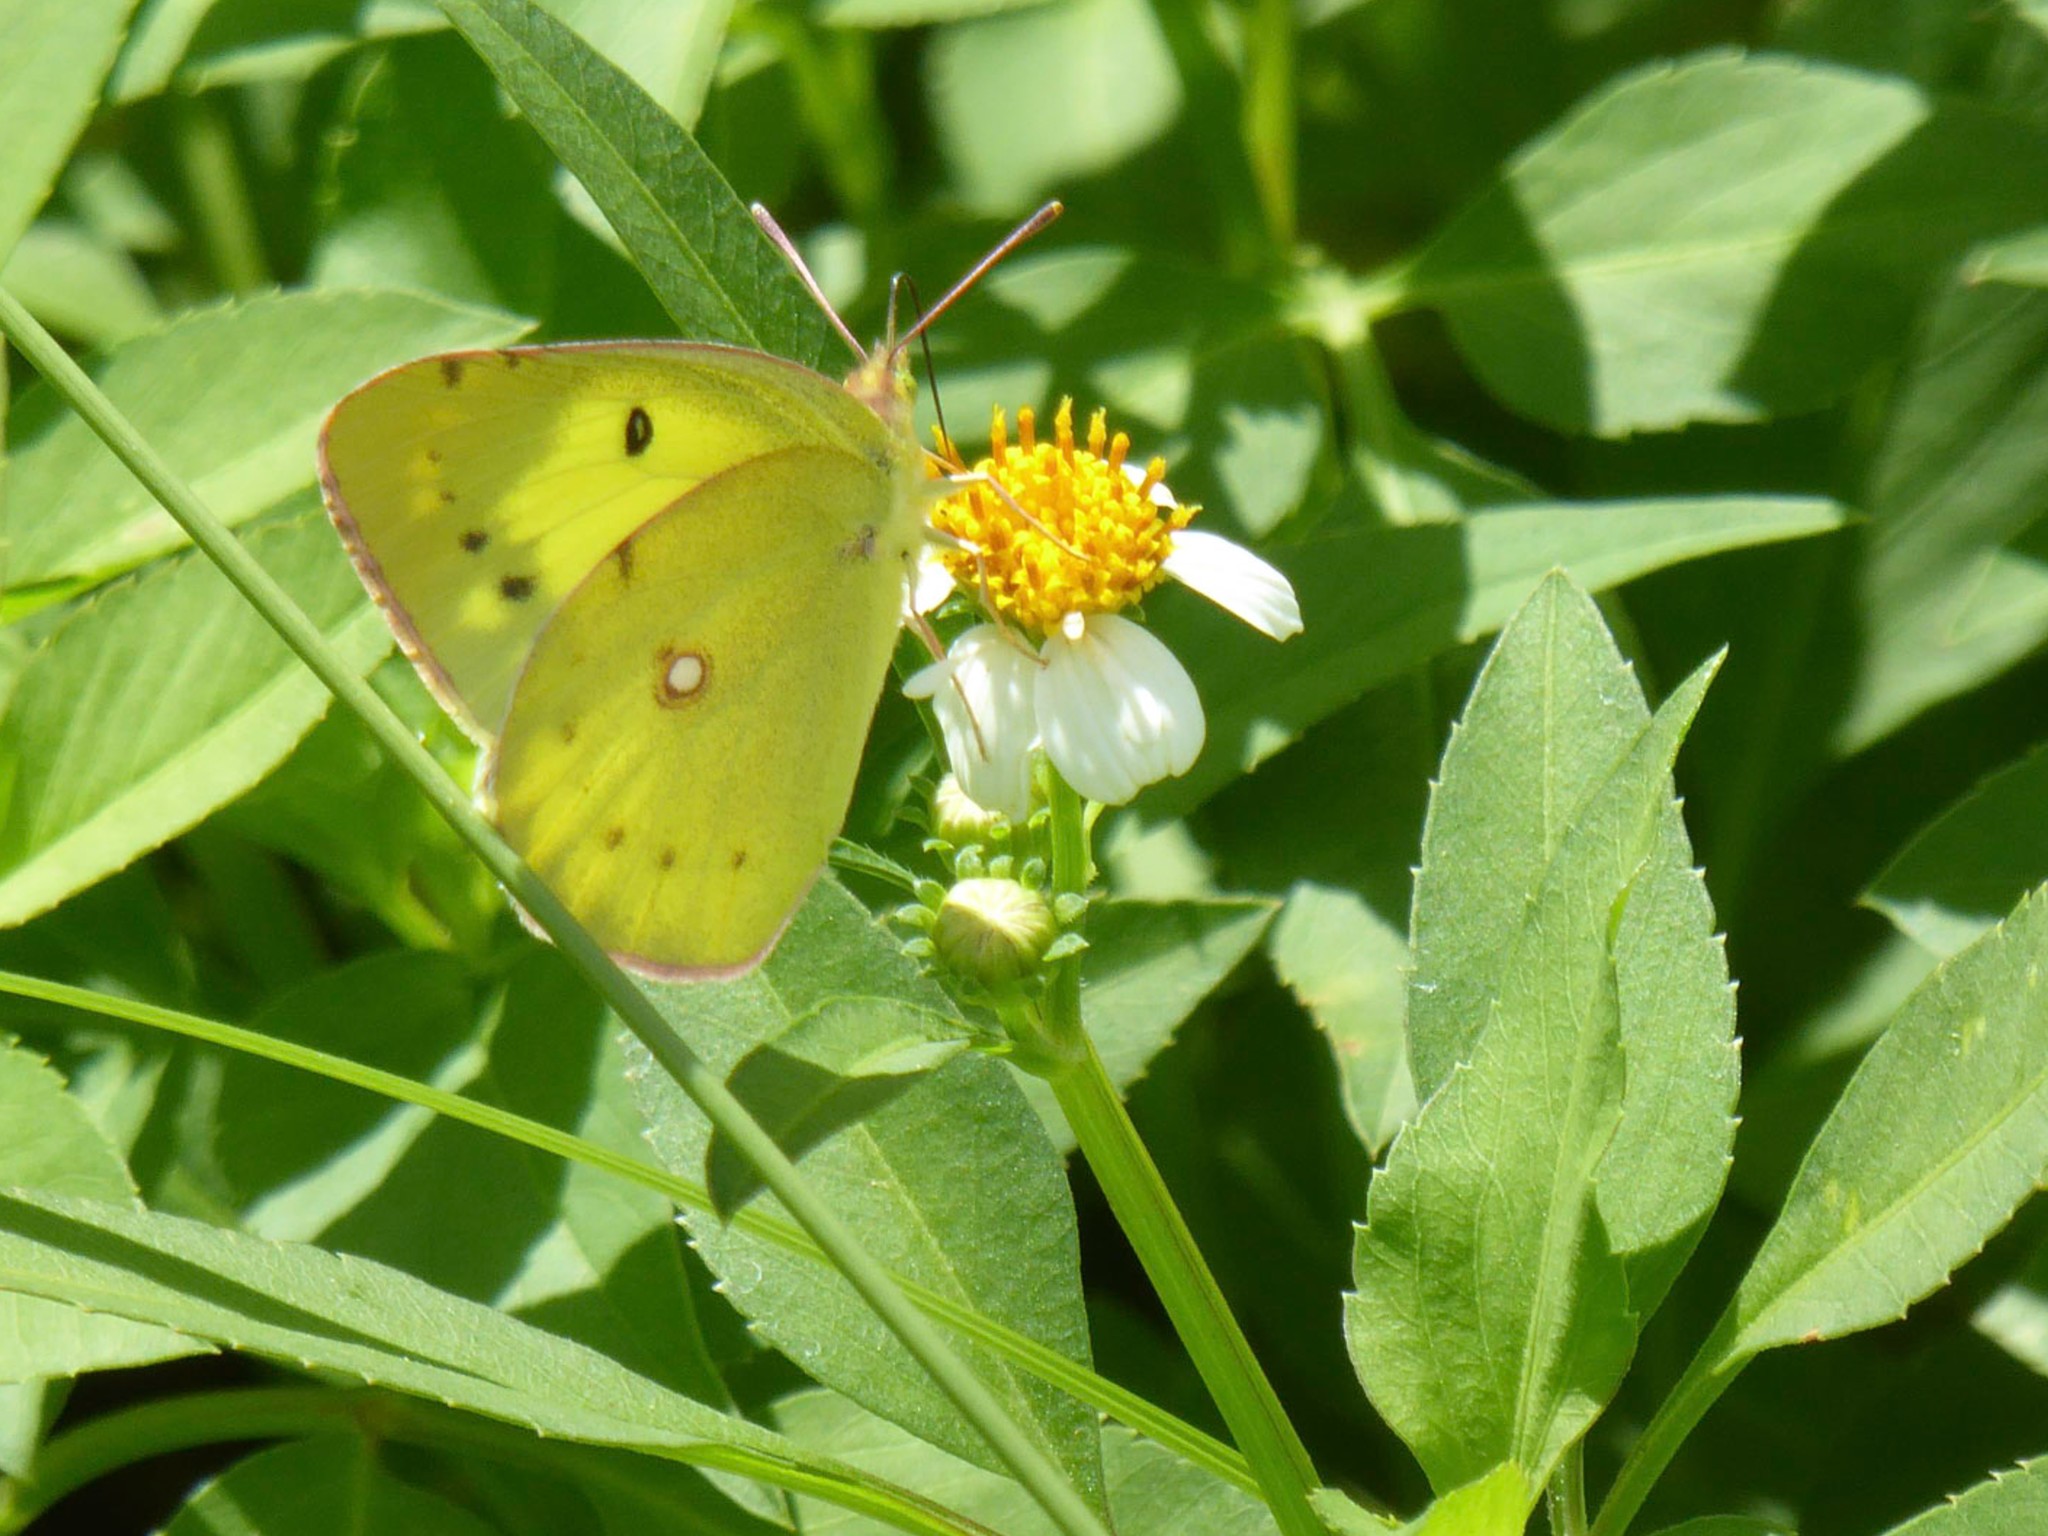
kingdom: Animalia
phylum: Arthropoda
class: Insecta
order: Lepidoptera
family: Pieridae
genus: Colias
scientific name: Colias poliographus
